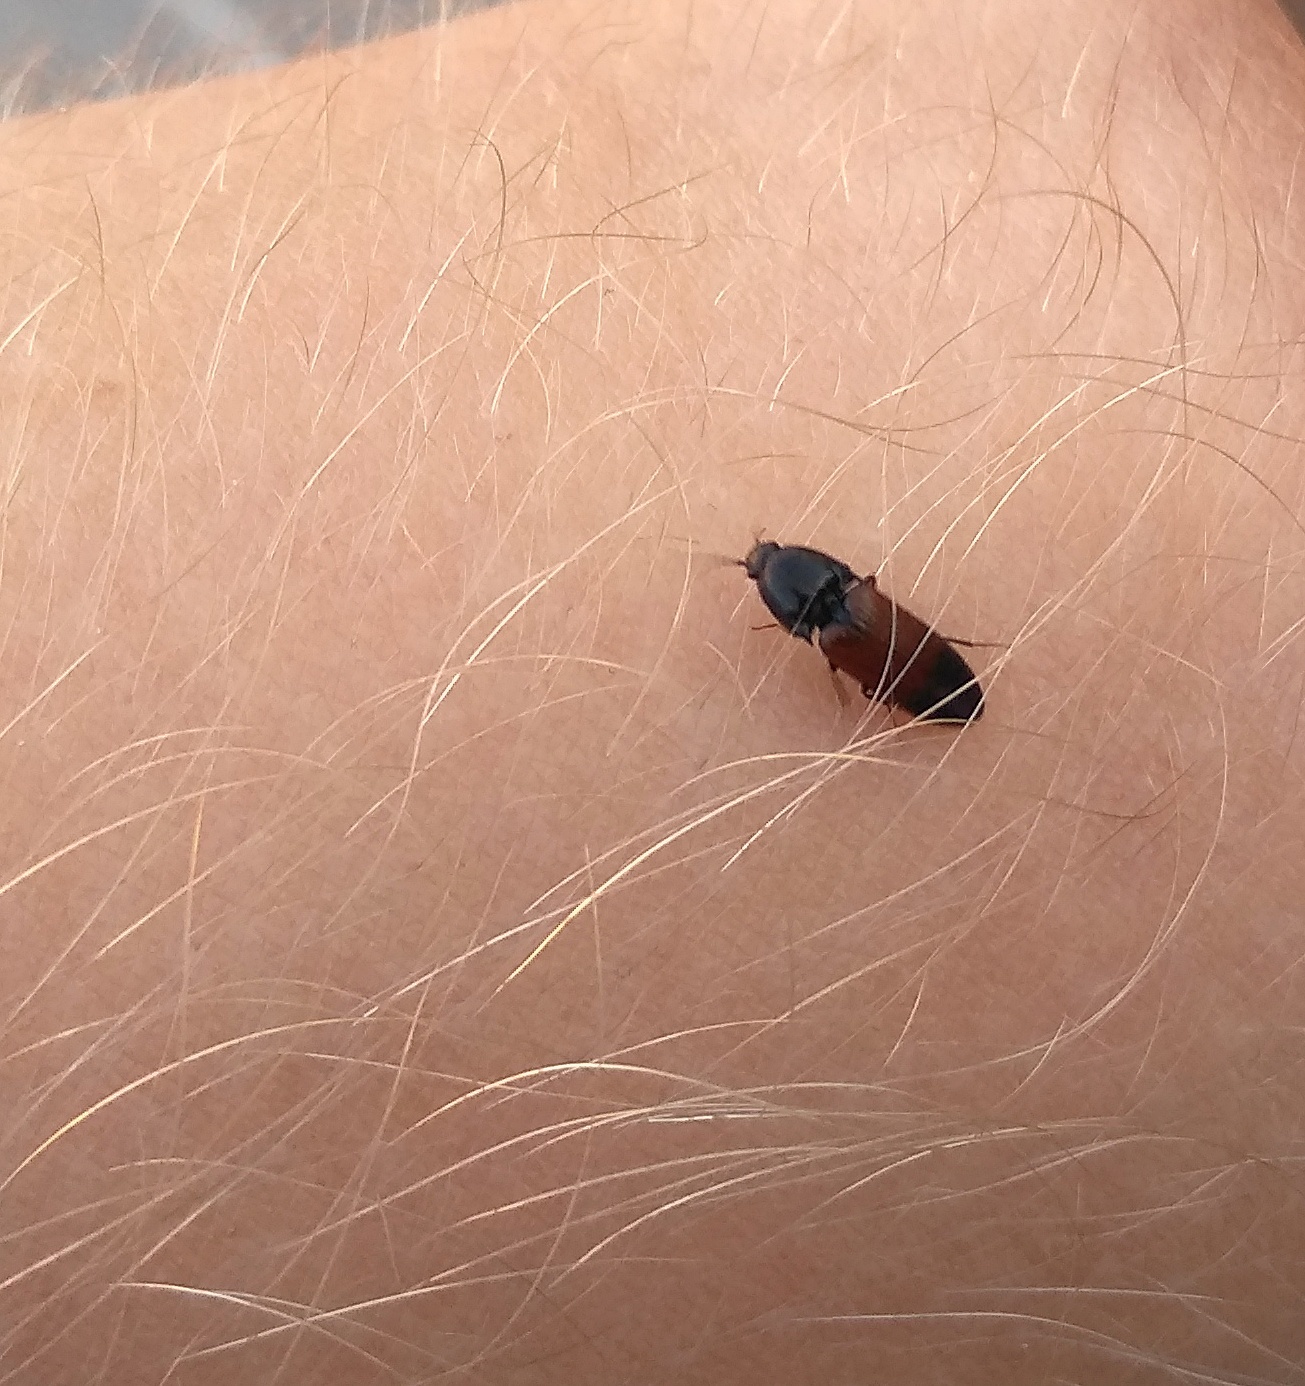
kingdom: Animalia
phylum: Arthropoda
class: Insecta
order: Coleoptera
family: Elateridae
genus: Ampedus
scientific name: Ampedus balteatus
